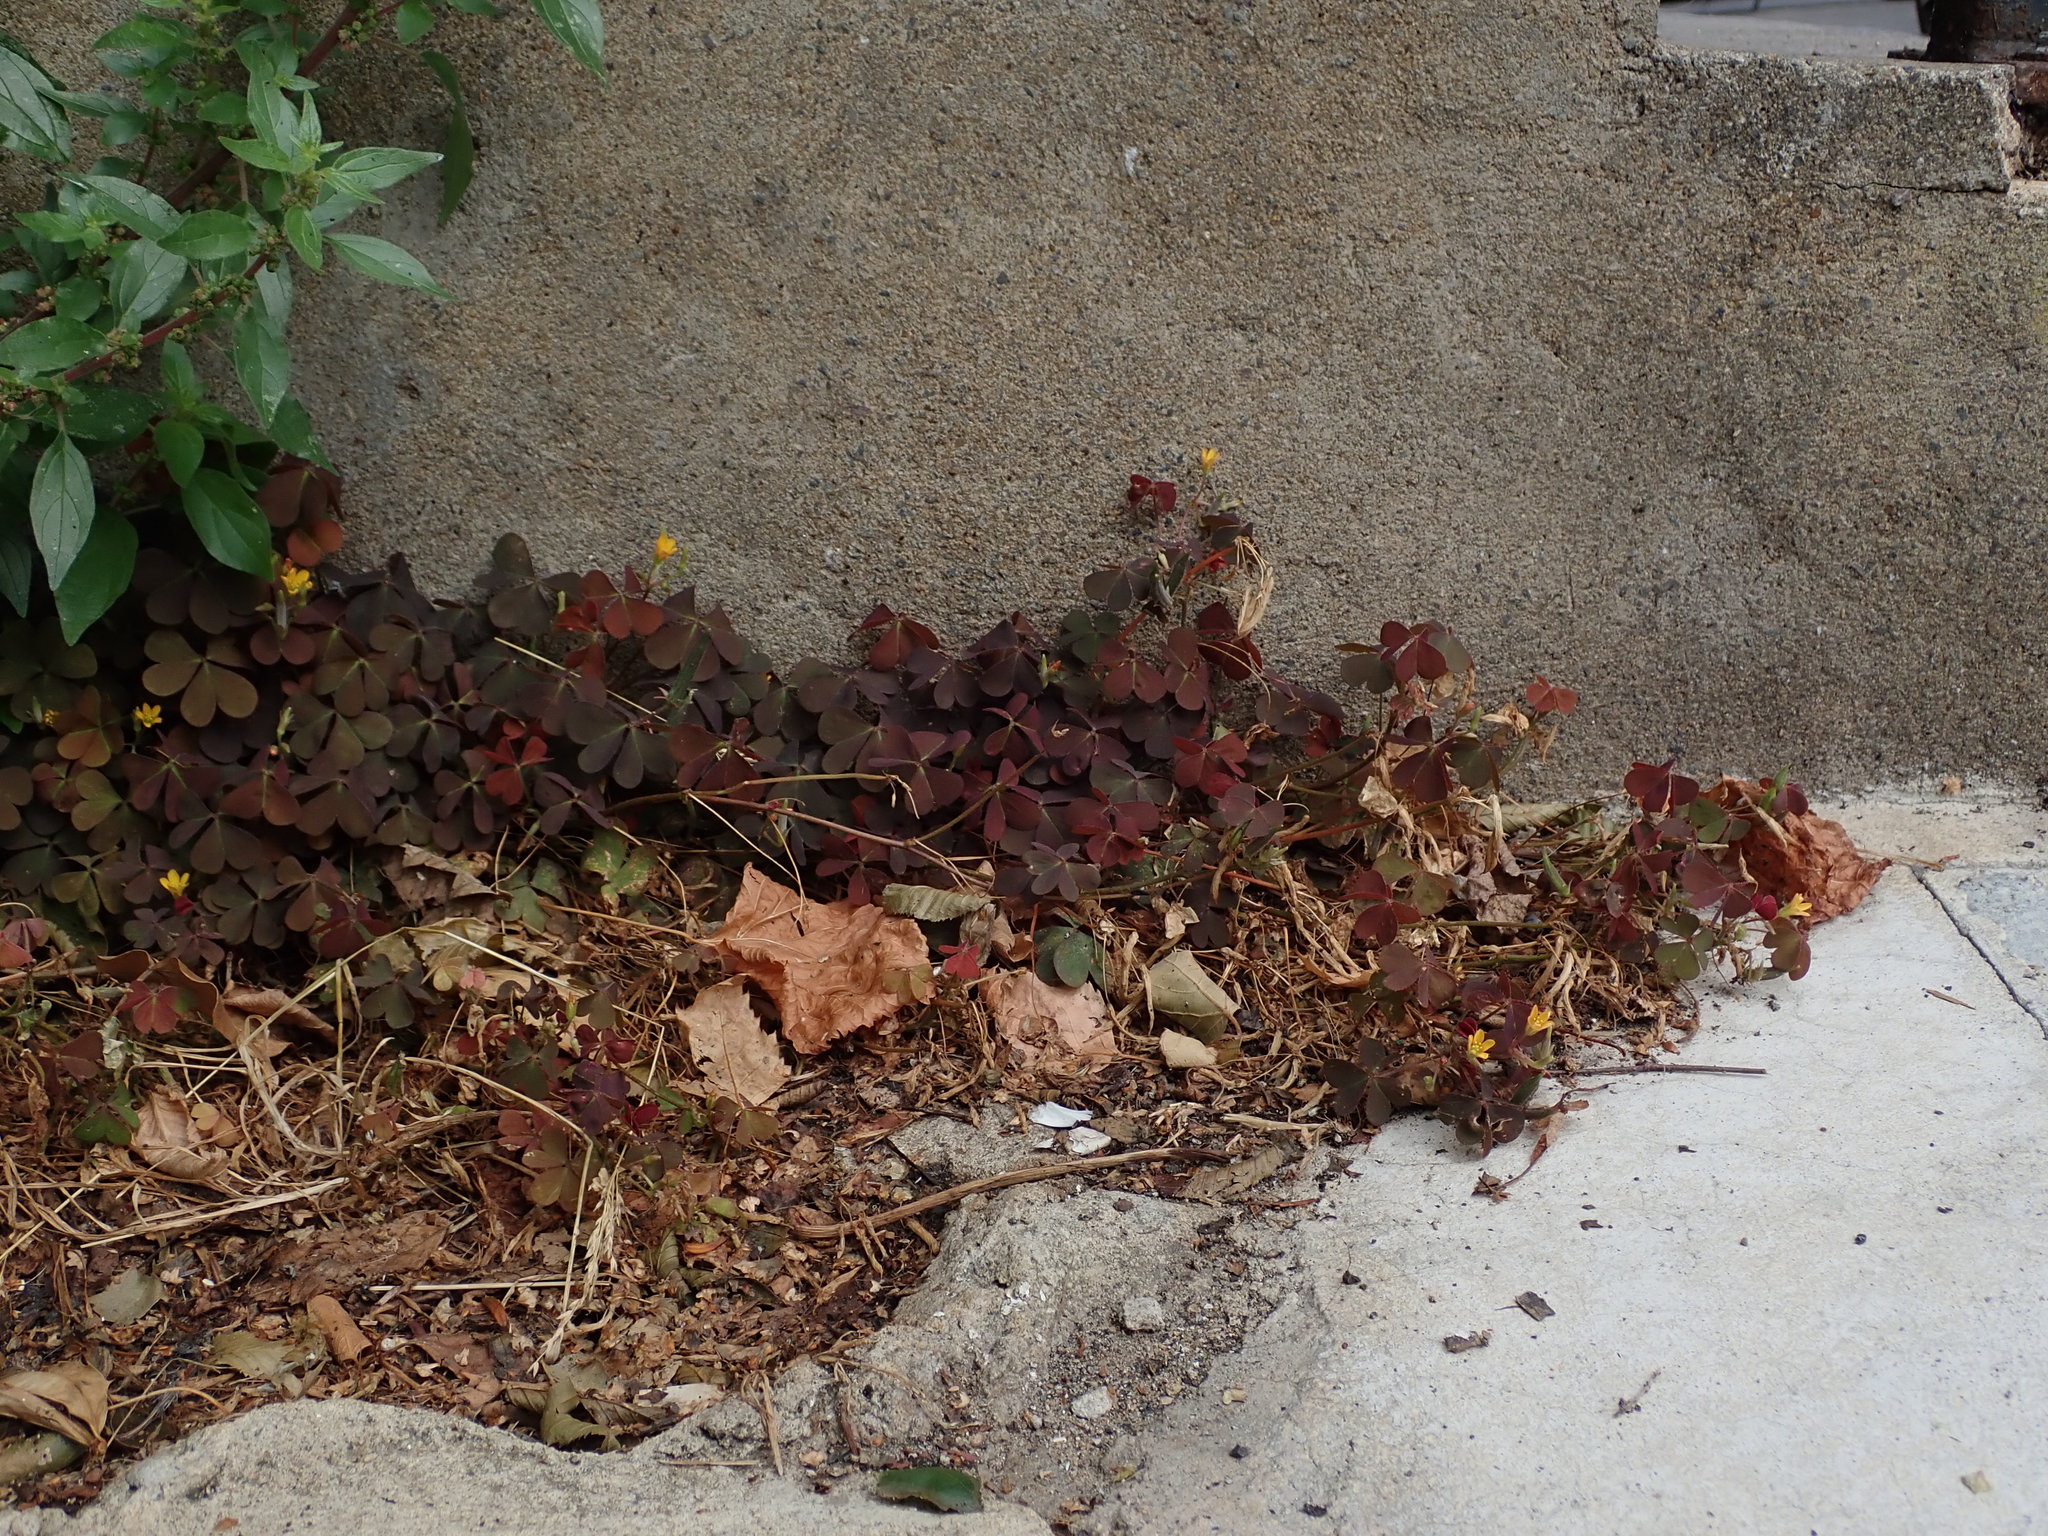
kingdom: Plantae
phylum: Tracheophyta
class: Magnoliopsida
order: Oxalidales
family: Oxalidaceae
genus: Oxalis
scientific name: Oxalis corniculata
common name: Procumbent yellow-sorrel
